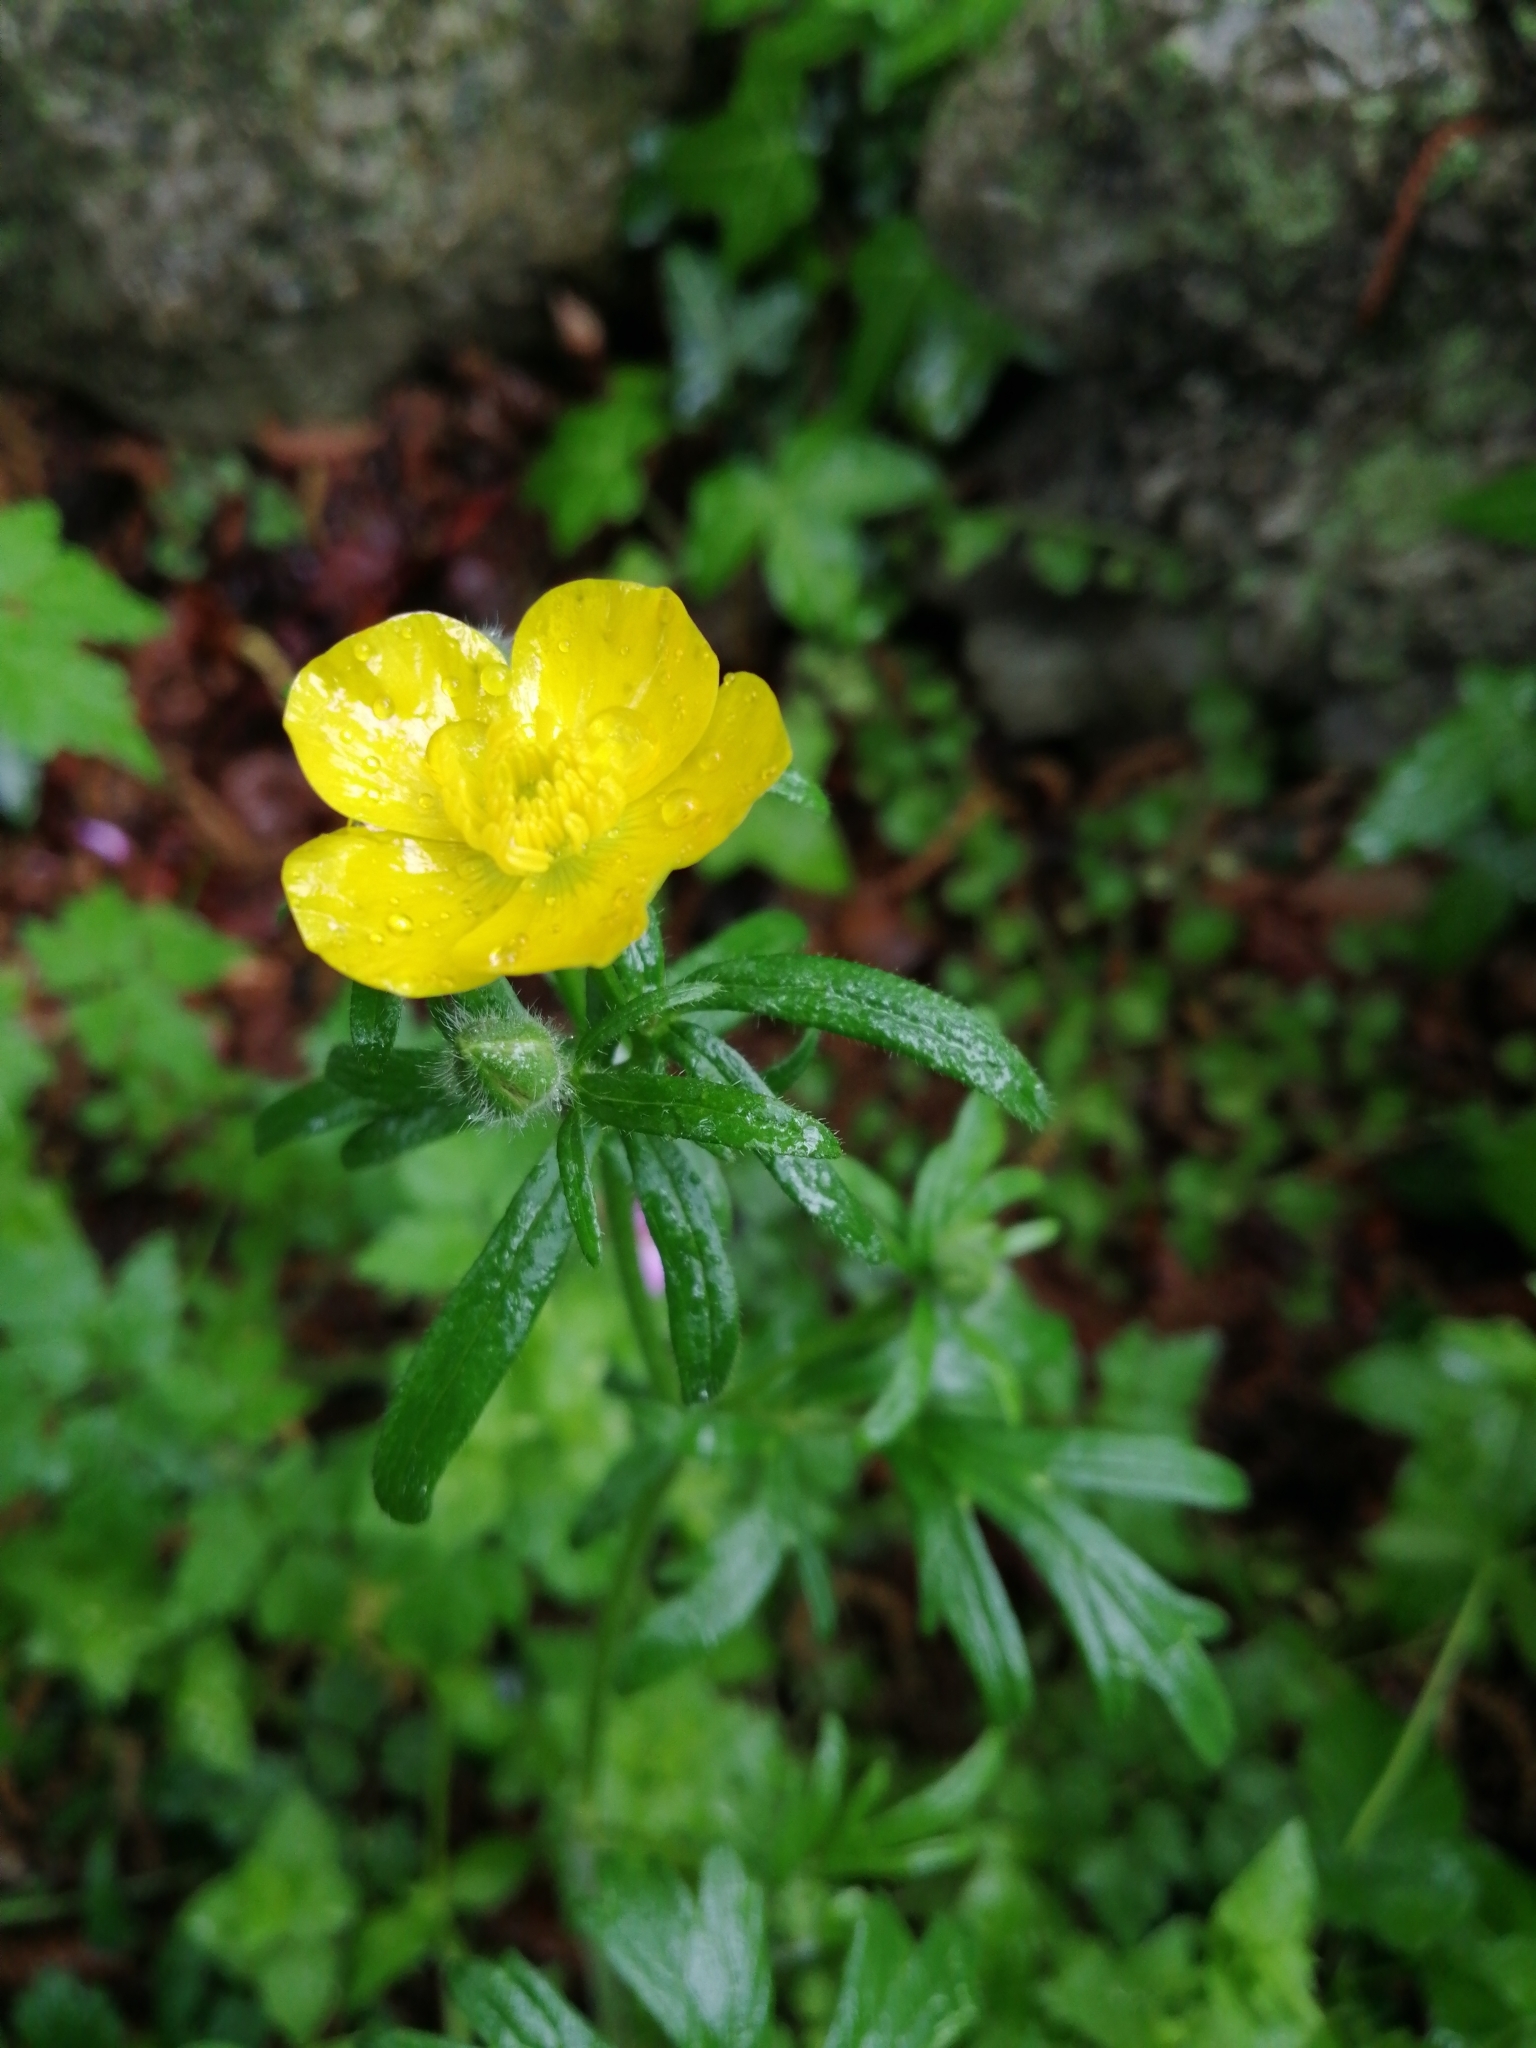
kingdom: Plantae
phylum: Tracheophyta
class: Magnoliopsida
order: Ranunculales
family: Ranunculaceae
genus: Ranunculus
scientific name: Ranunculus bulbosus
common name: Bulbous buttercup
